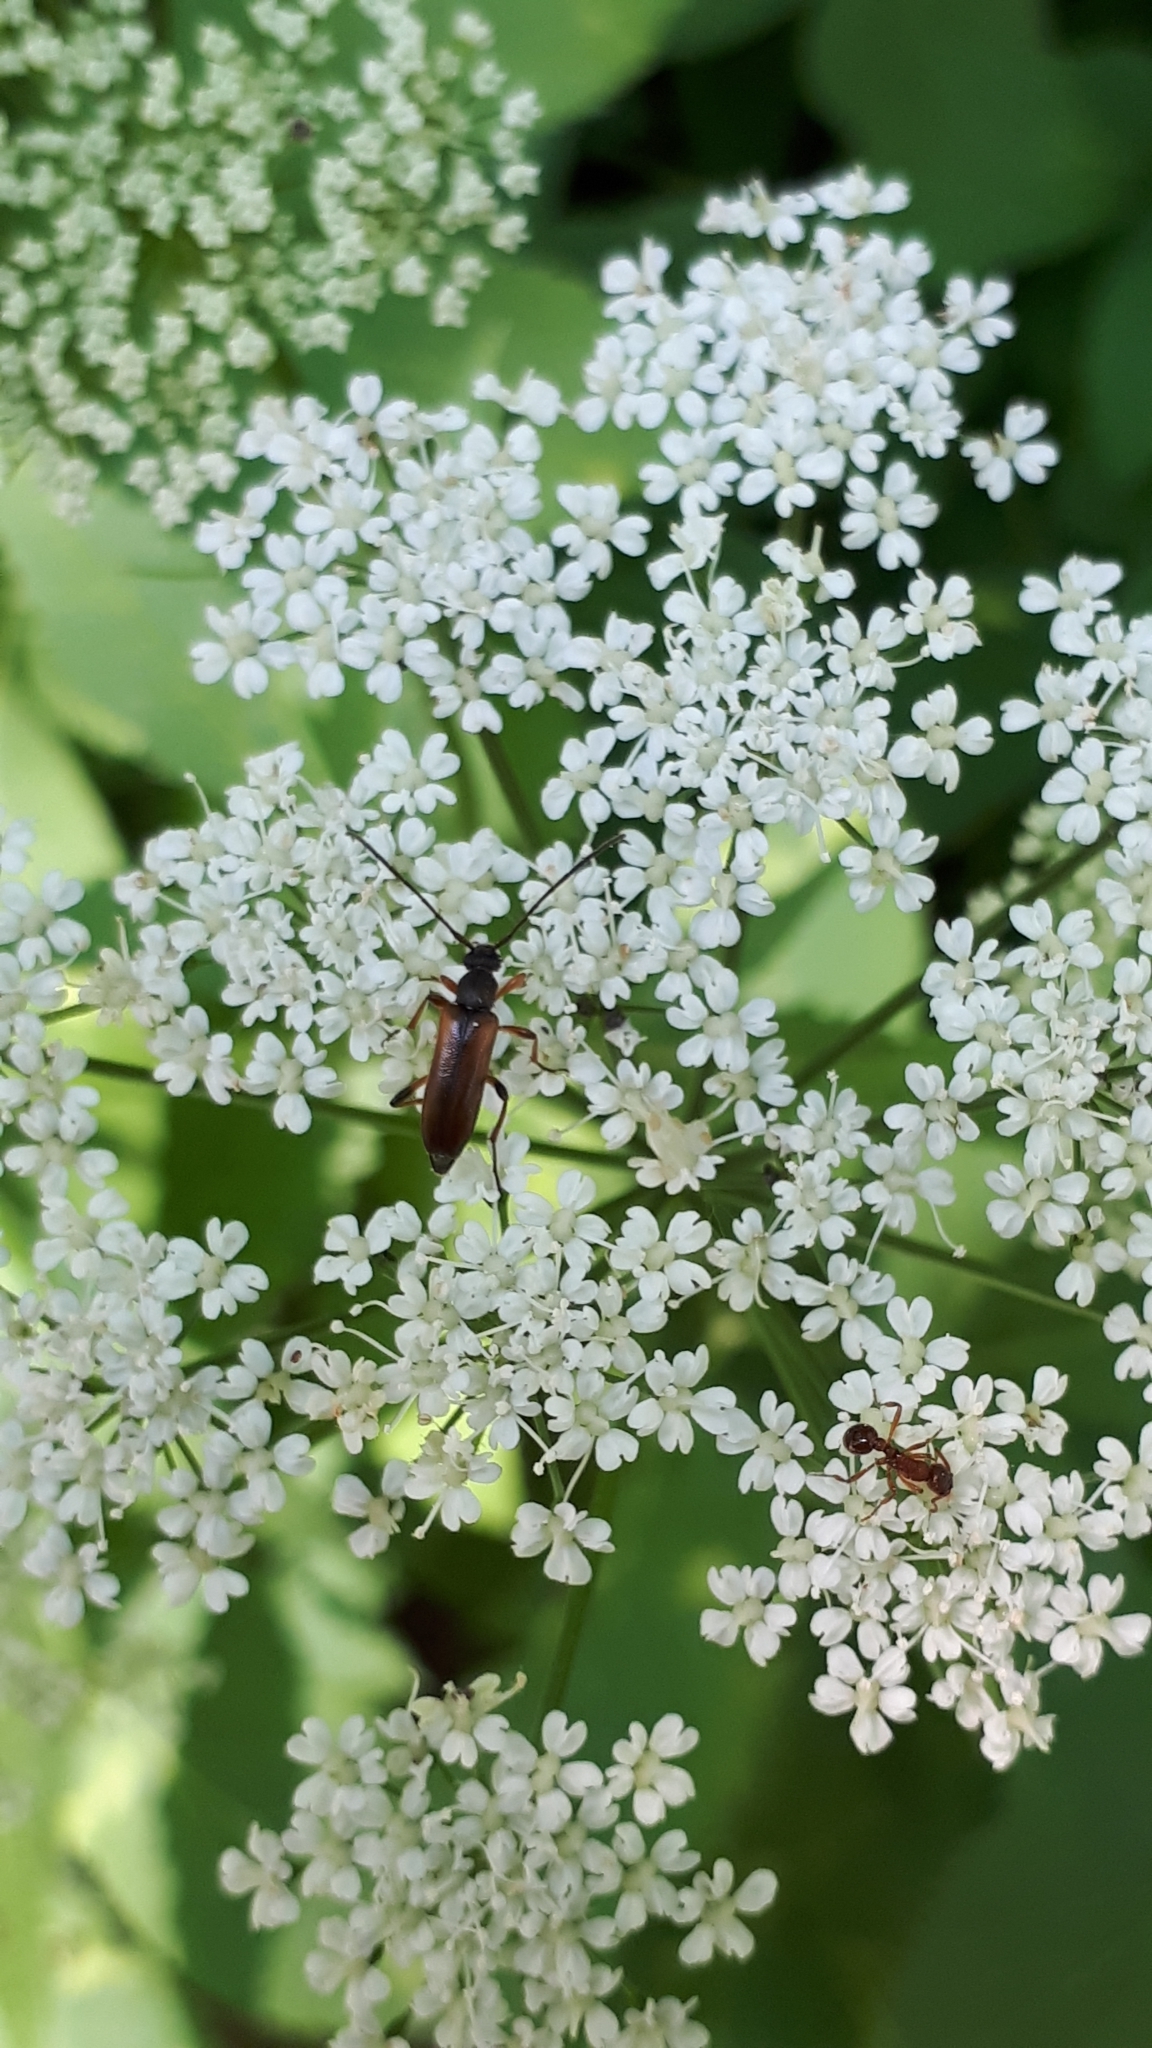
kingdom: Animalia
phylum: Arthropoda
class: Insecta
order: Coleoptera
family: Cerambycidae
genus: Alosterna
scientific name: Alosterna tabacicolor
